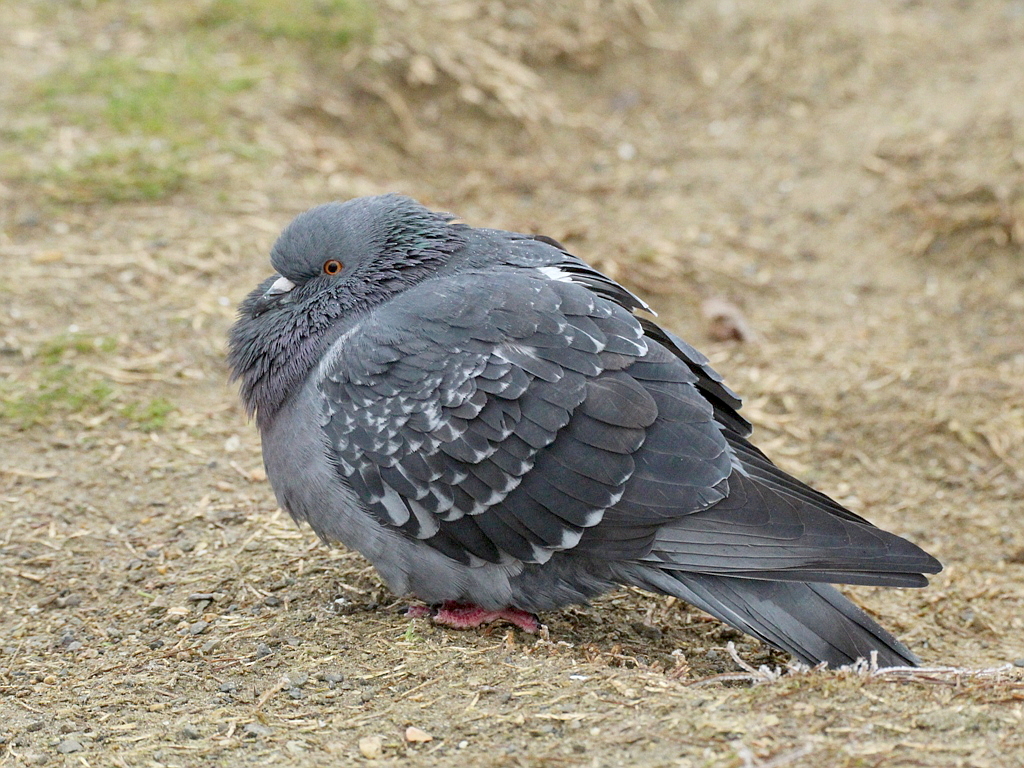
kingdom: Animalia
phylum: Chordata
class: Aves
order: Columbiformes
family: Columbidae
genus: Columba
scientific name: Columba livia
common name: Rock pigeon
